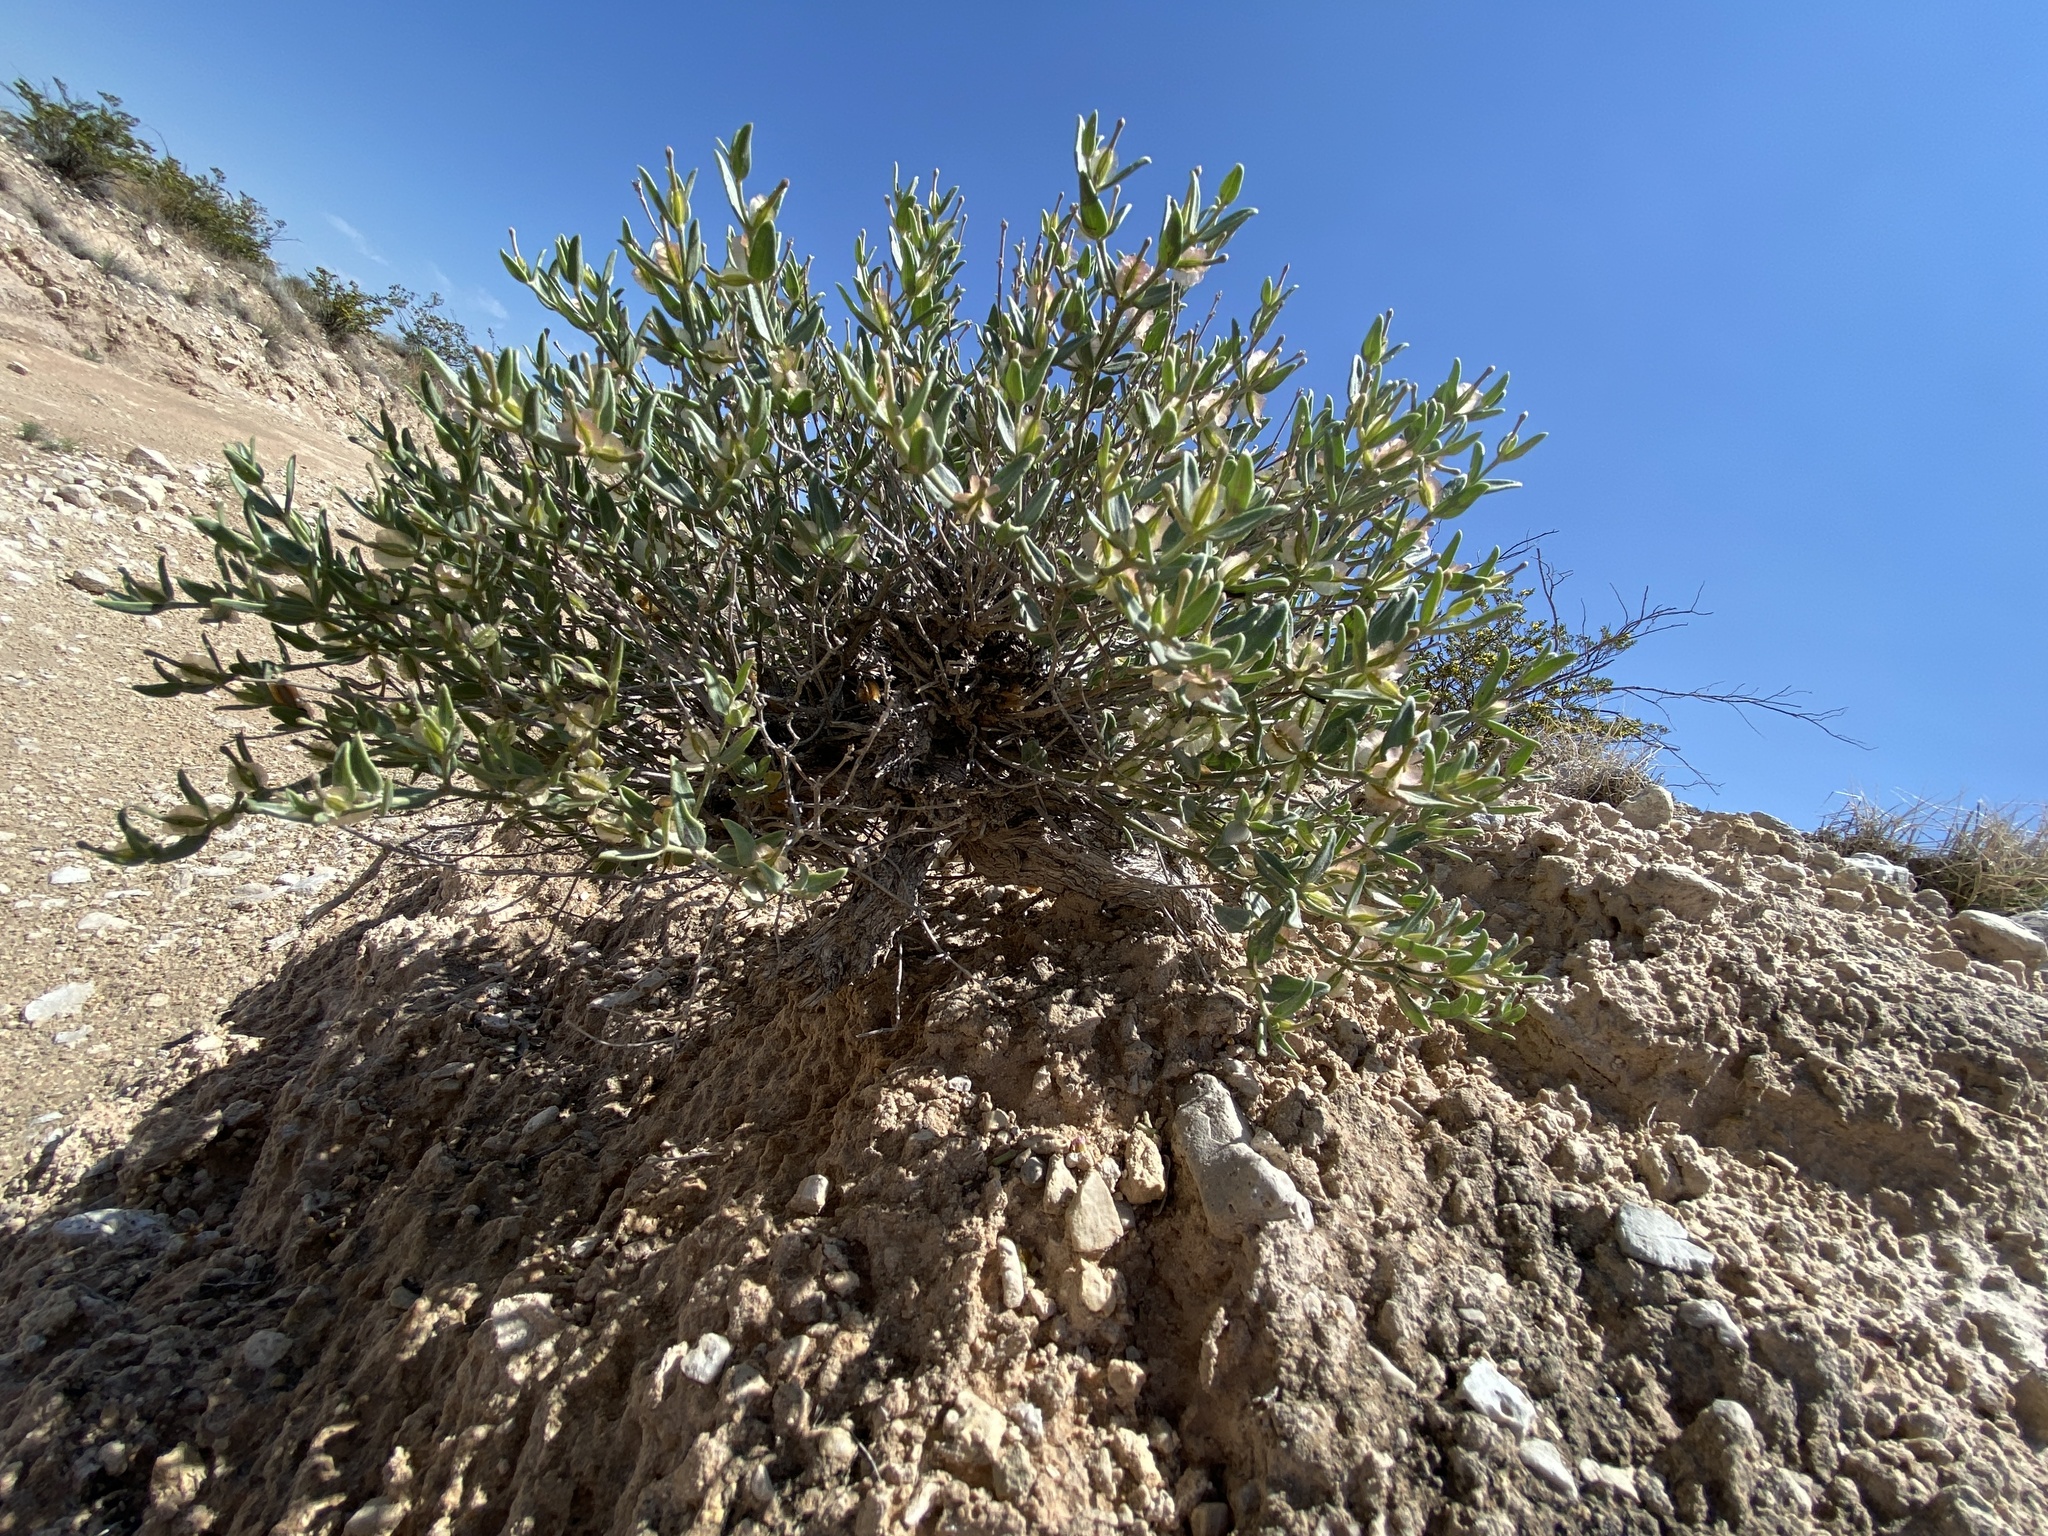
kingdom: Plantae
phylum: Tracheophyta
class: Magnoliopsida
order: Caryophyllales
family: Nyctaginaceae
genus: Acleisanthes
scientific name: Acleisanthes lanceolata
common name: Gypsum moonpod
